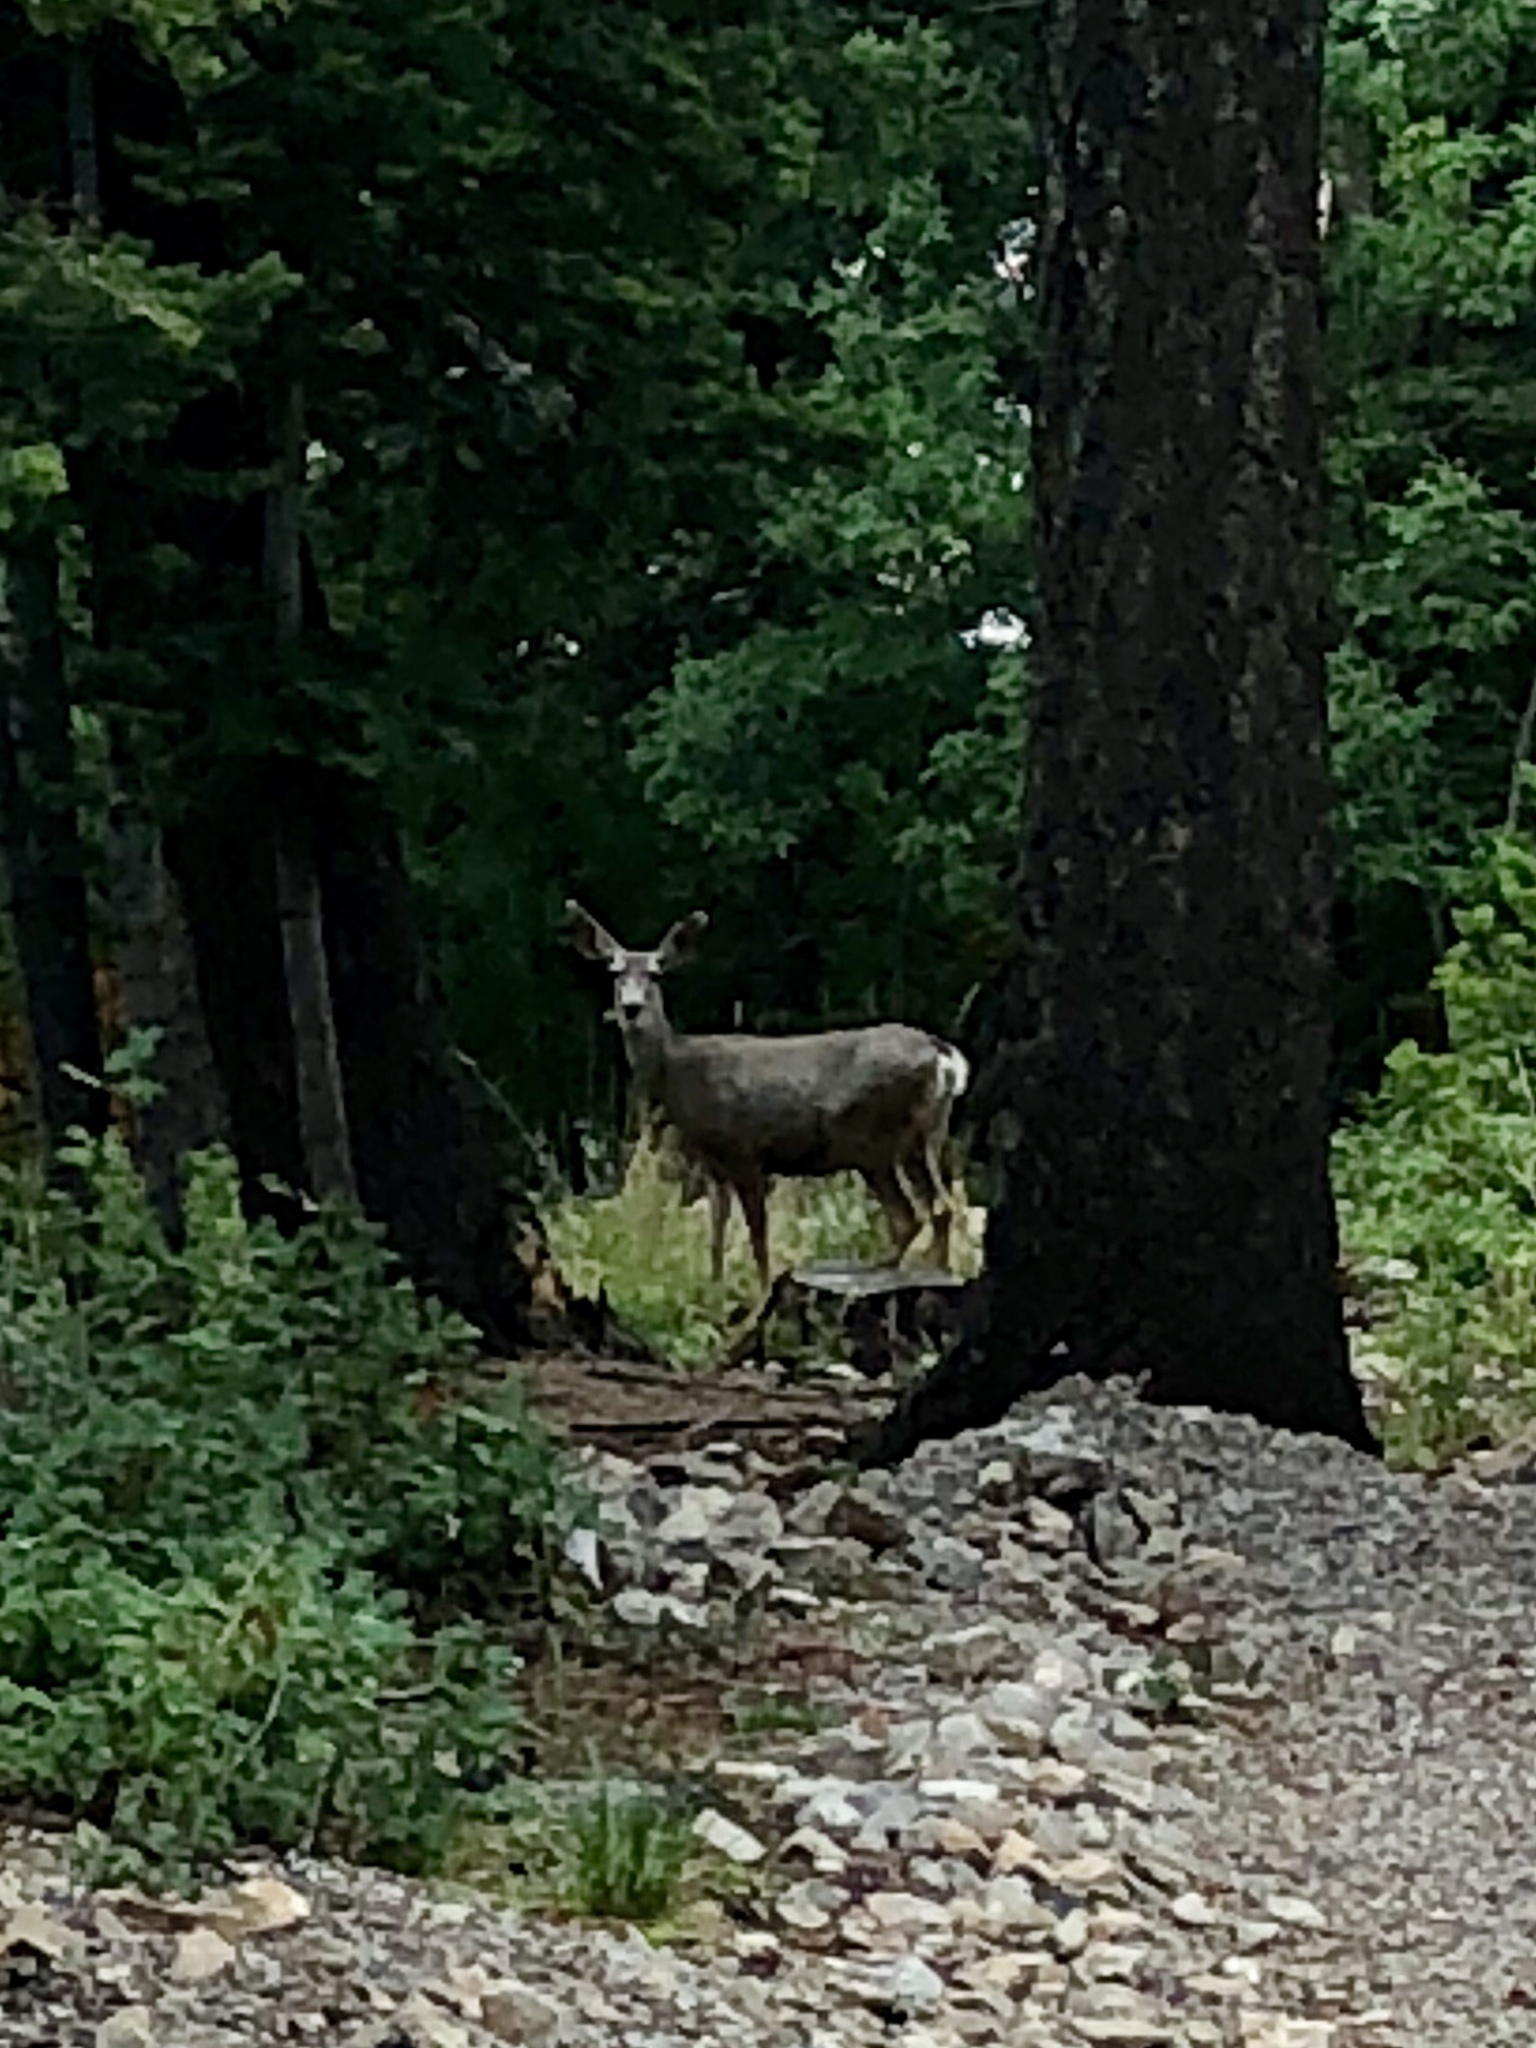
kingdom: Animalia
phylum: Chordata
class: Mammalia
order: Artiodactyla
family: Cervidae
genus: Odocoileus
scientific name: Odocoileus hemionus
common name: Mule deer
